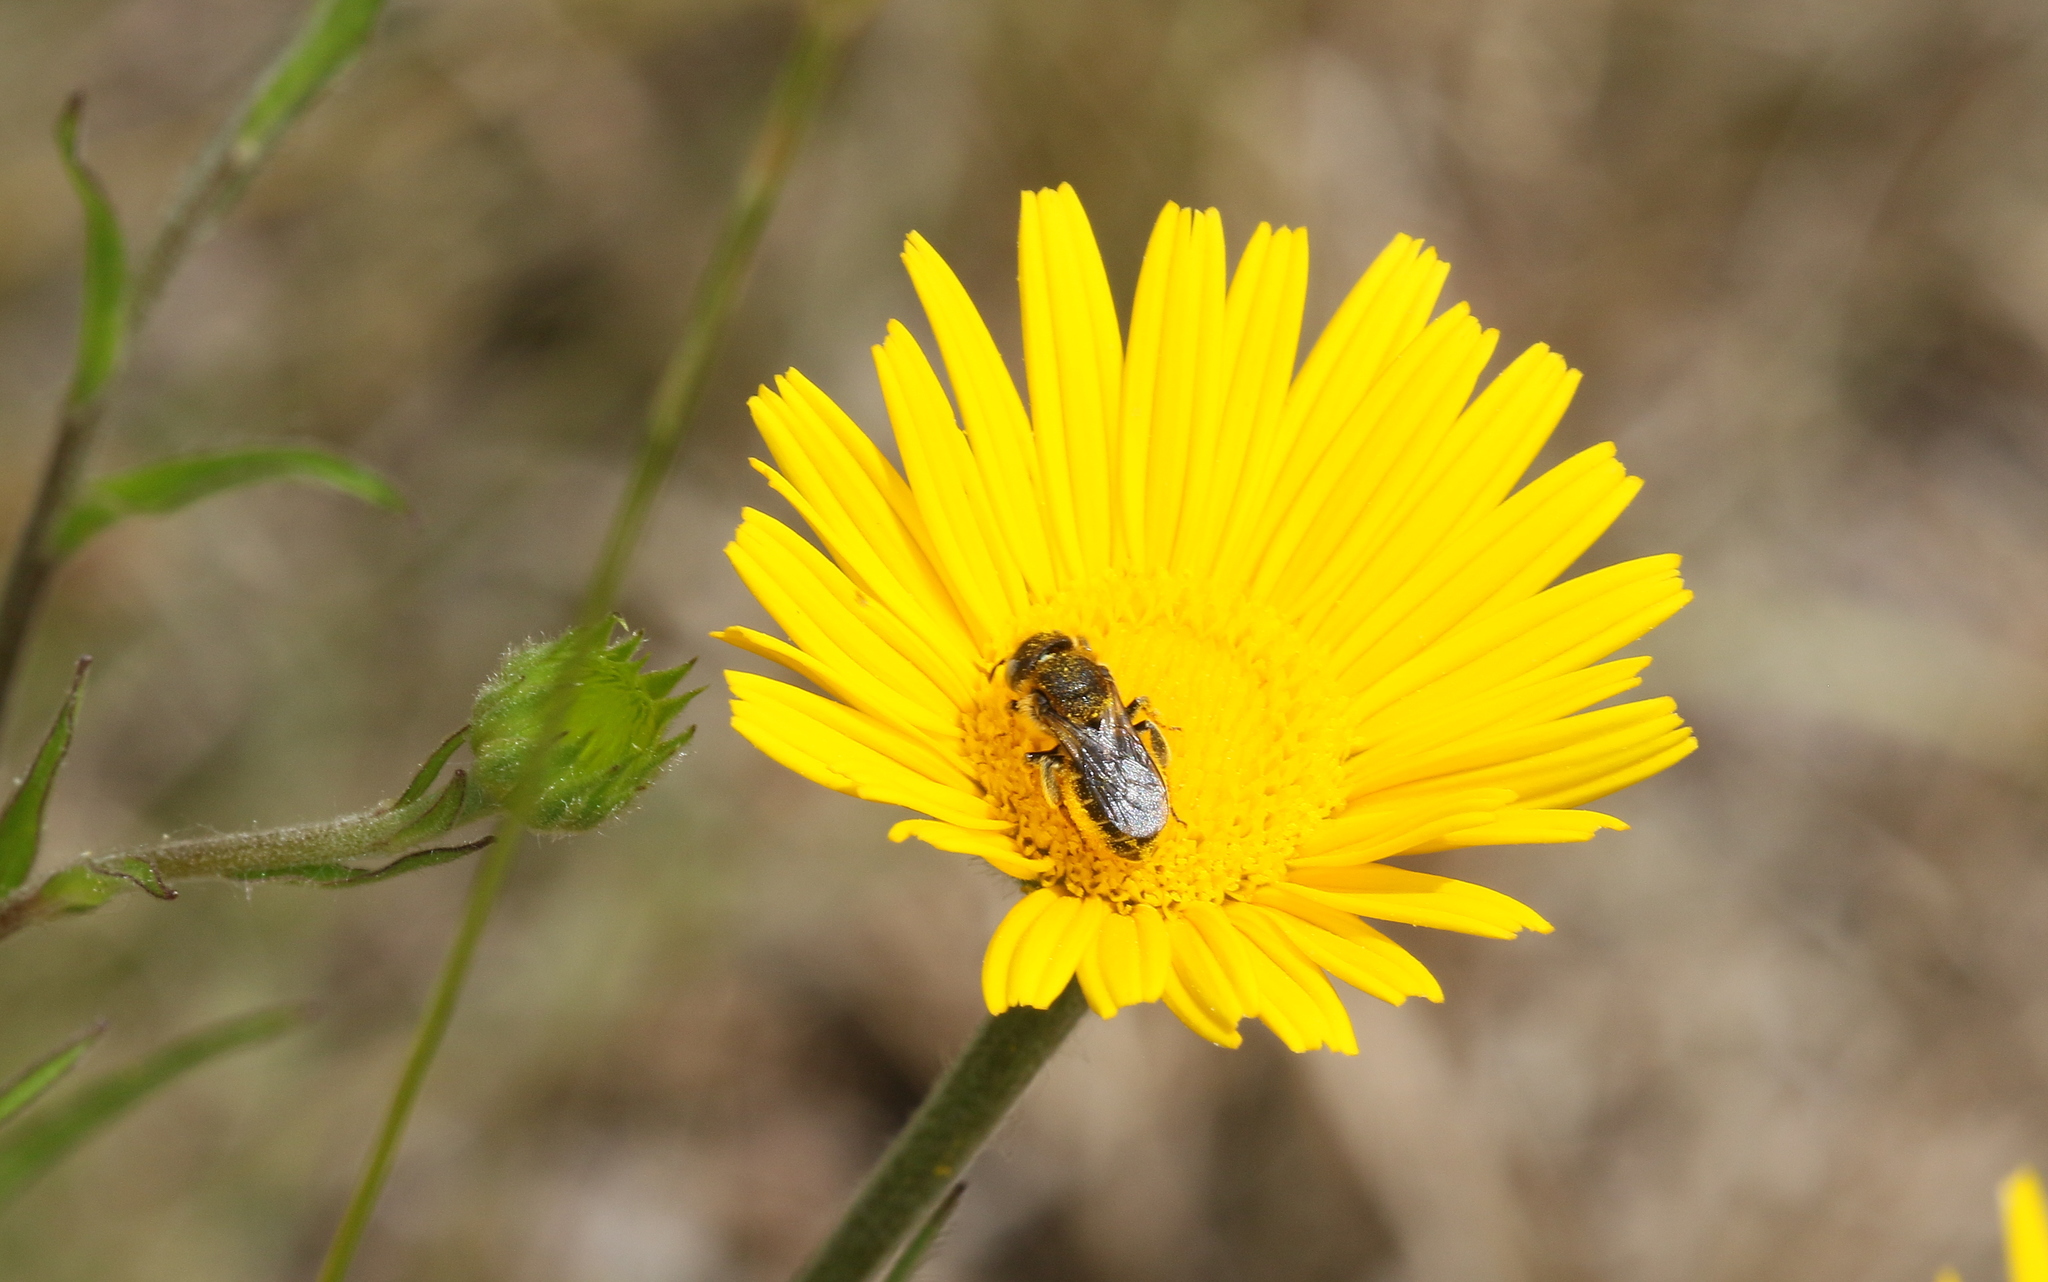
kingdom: Animalia
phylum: Arthropoda
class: Insecta
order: Hymenoptera
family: Megachilidae
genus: Osmia
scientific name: Osmia spinulosa
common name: Spined mason bee
